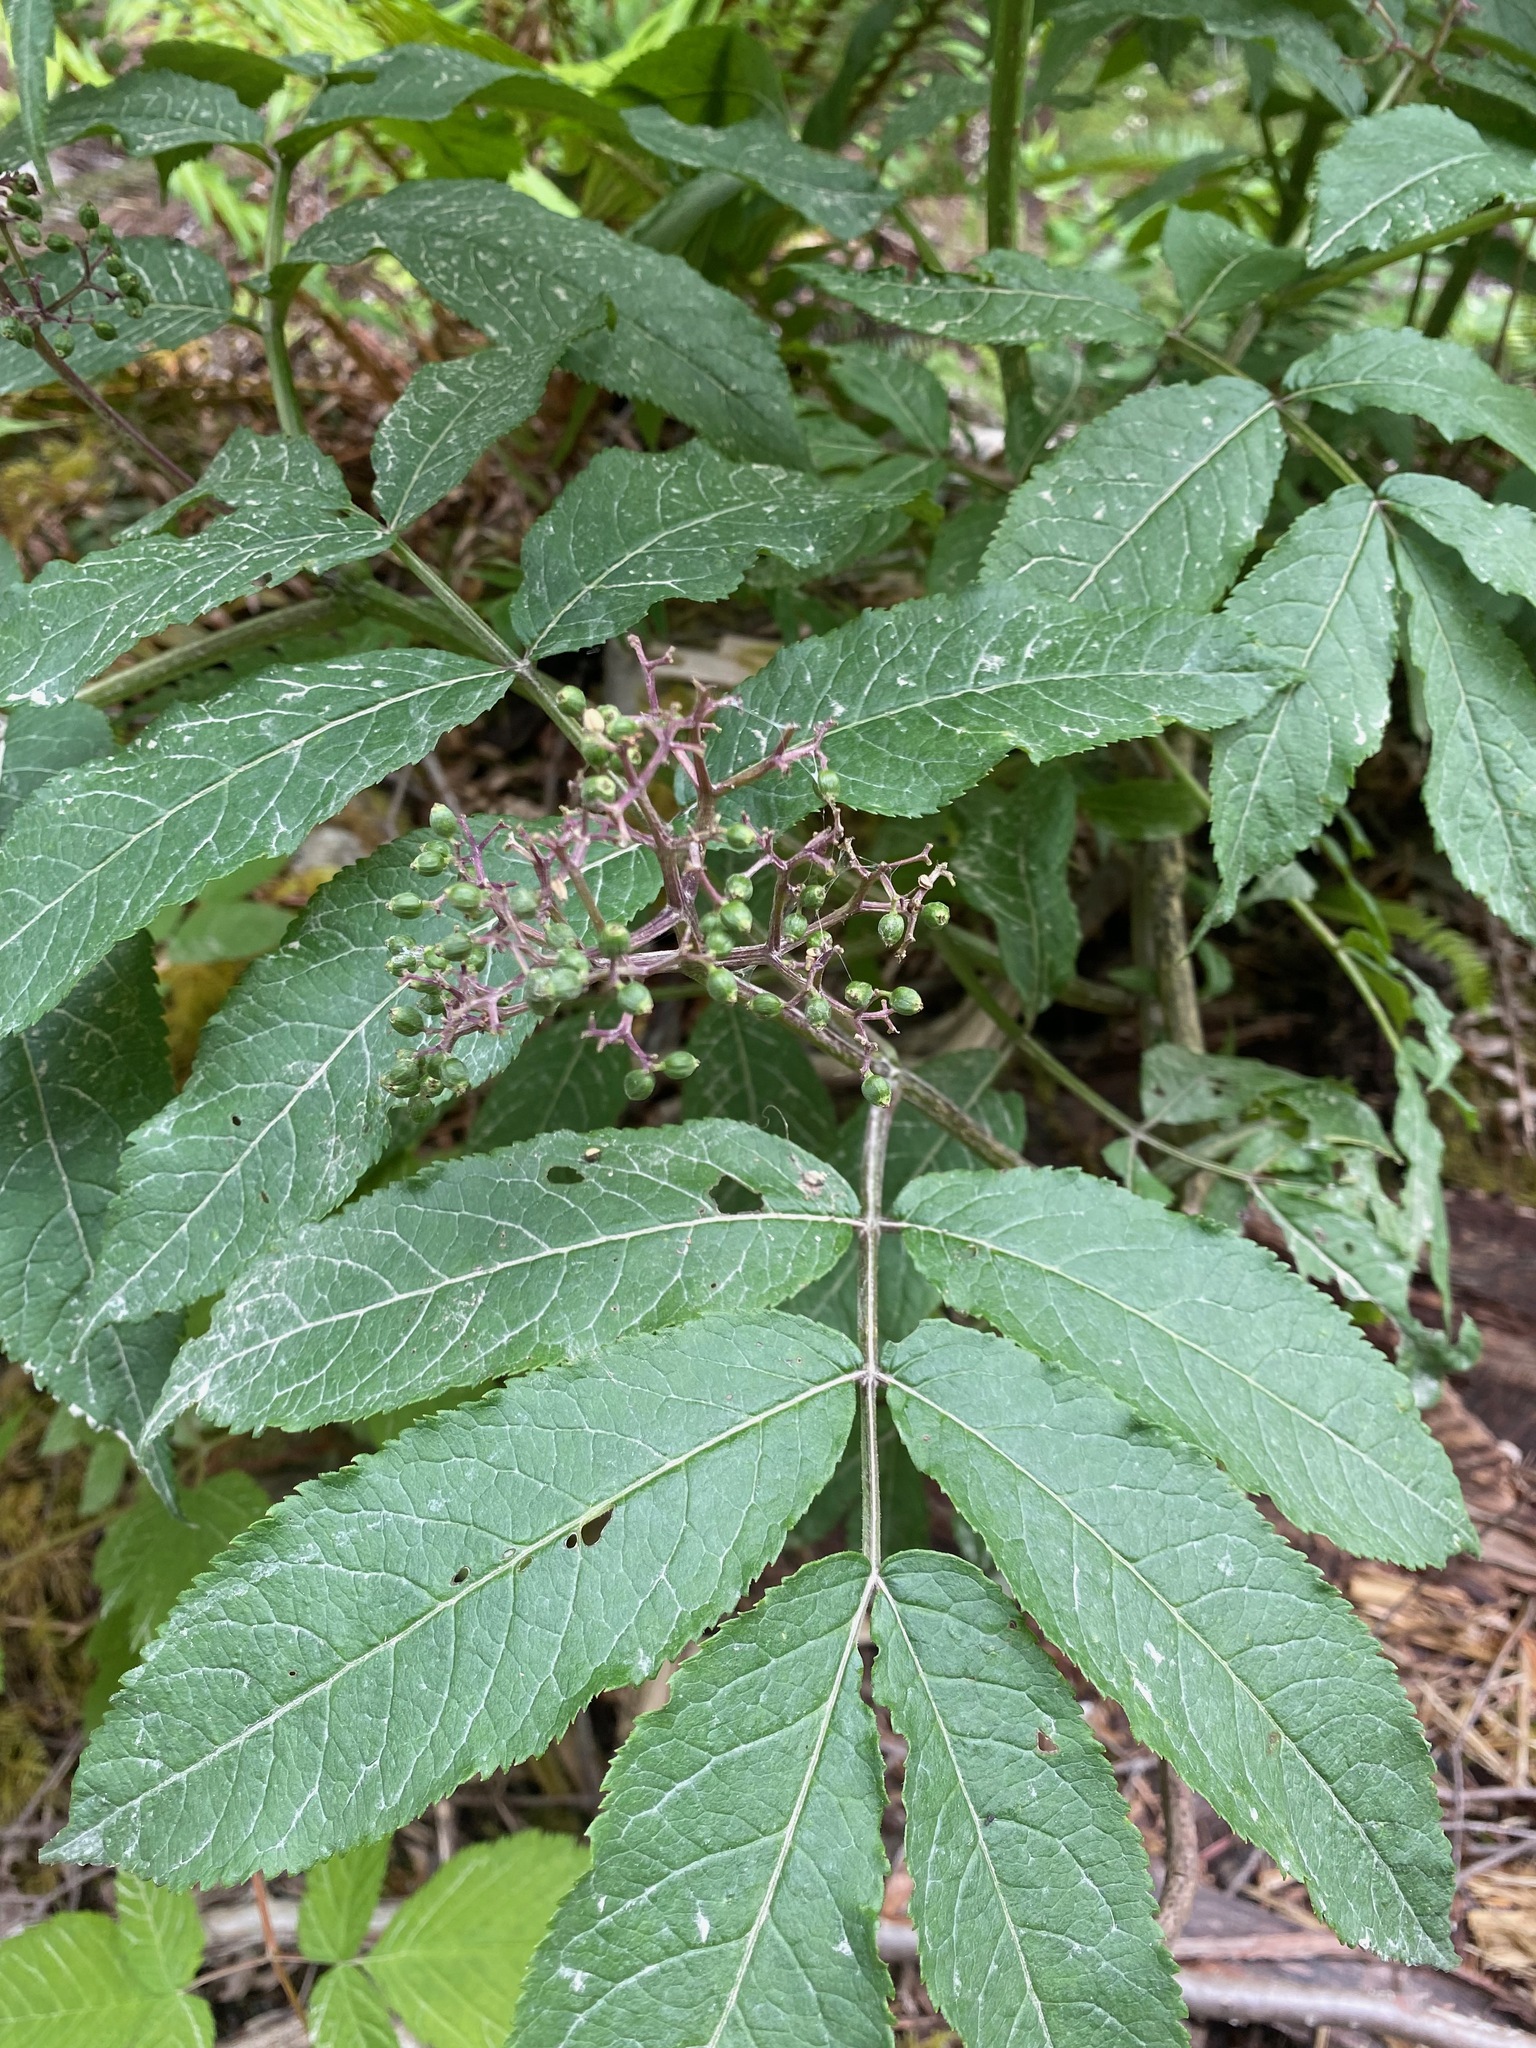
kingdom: Plantae
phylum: Tracheophyta
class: Magnoliopsida
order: Dipsacales
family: Viburnaceae
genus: Sambucus
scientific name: Sambucus racemosa
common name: Red-berried elder
